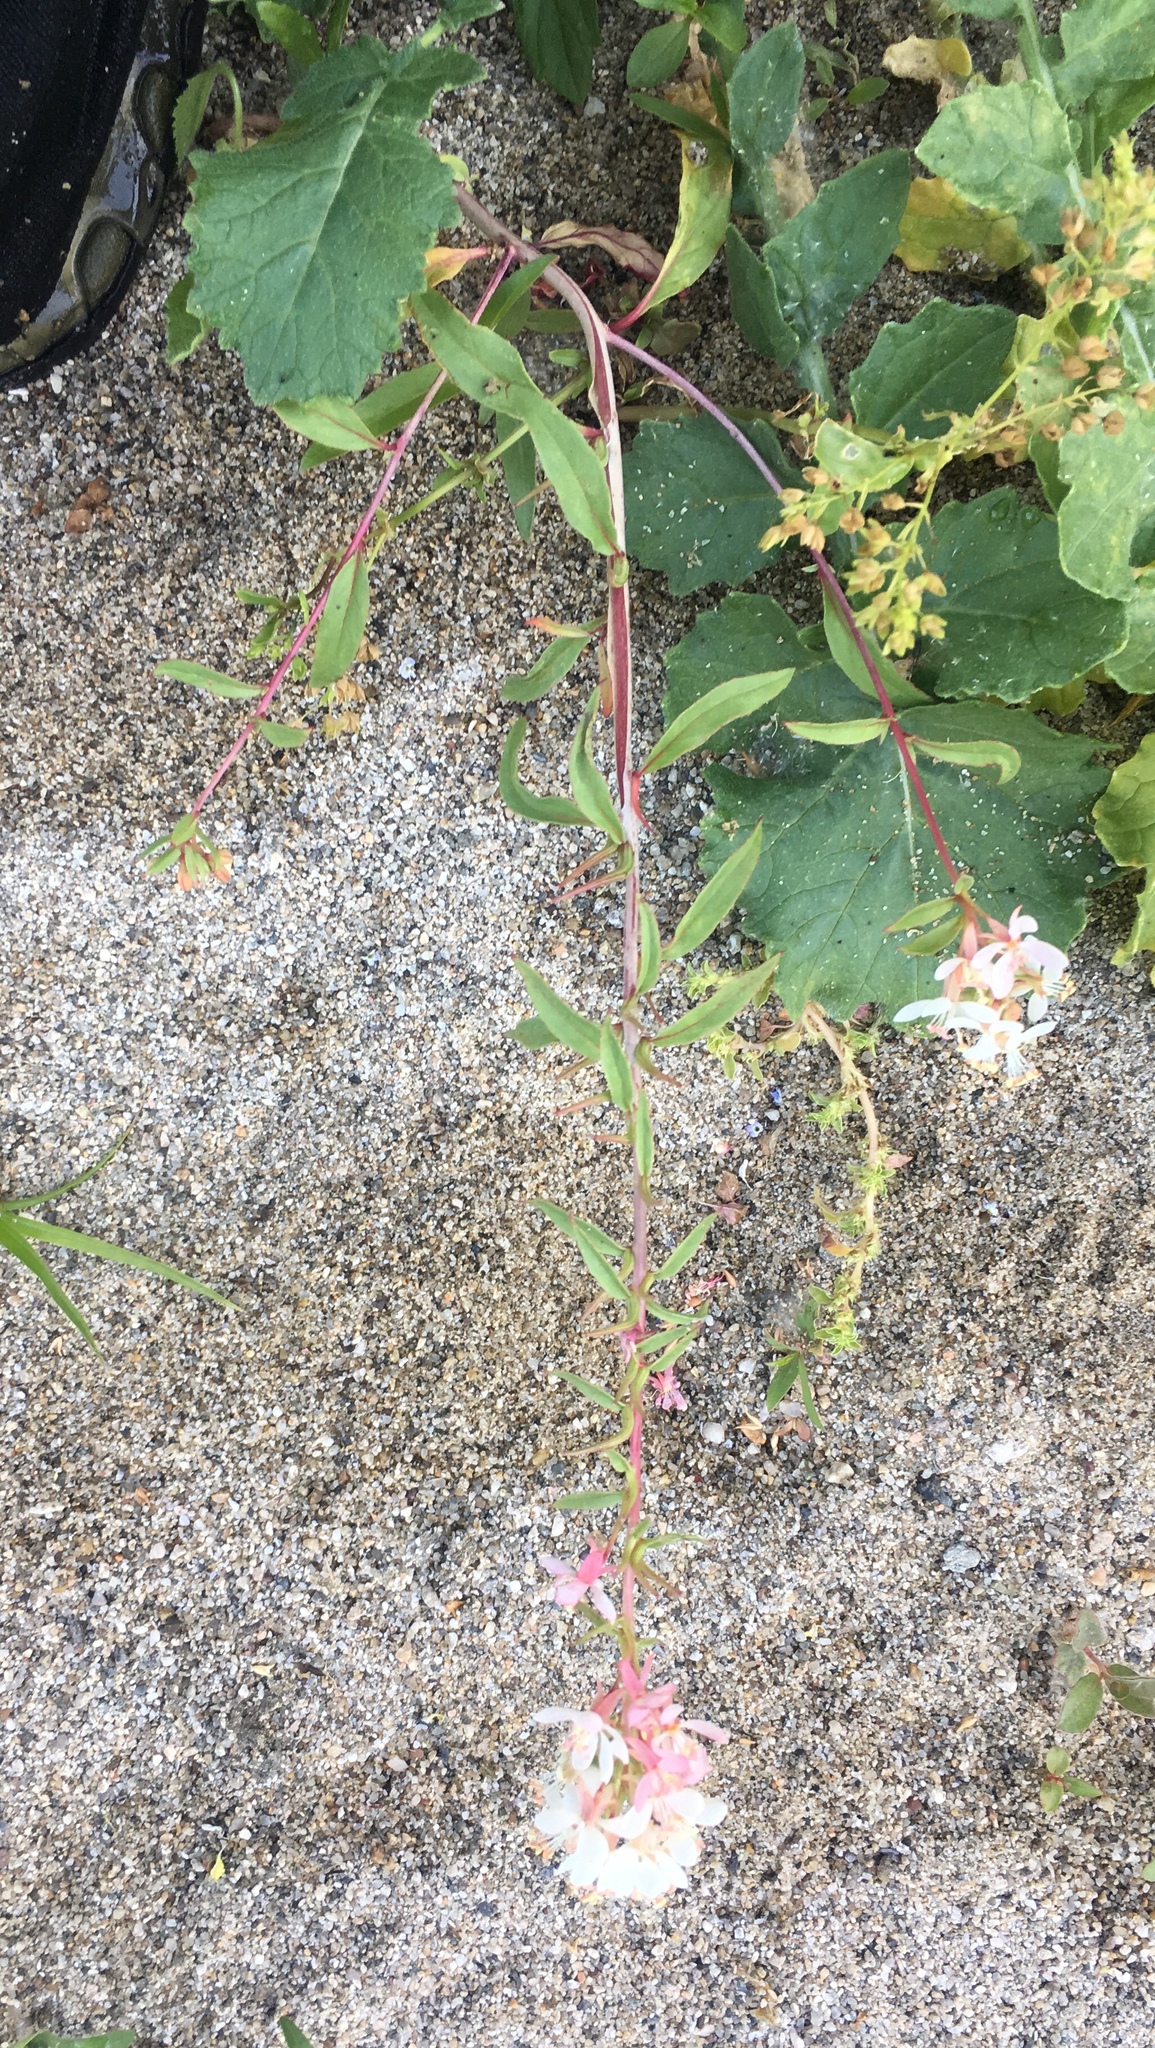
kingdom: Plantae
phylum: Tracheophyta
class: Magnoliopsida
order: Myrtales
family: Onagraceae
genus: Eremothera
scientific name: Eremothera boothii
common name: Booth's evening primrose
